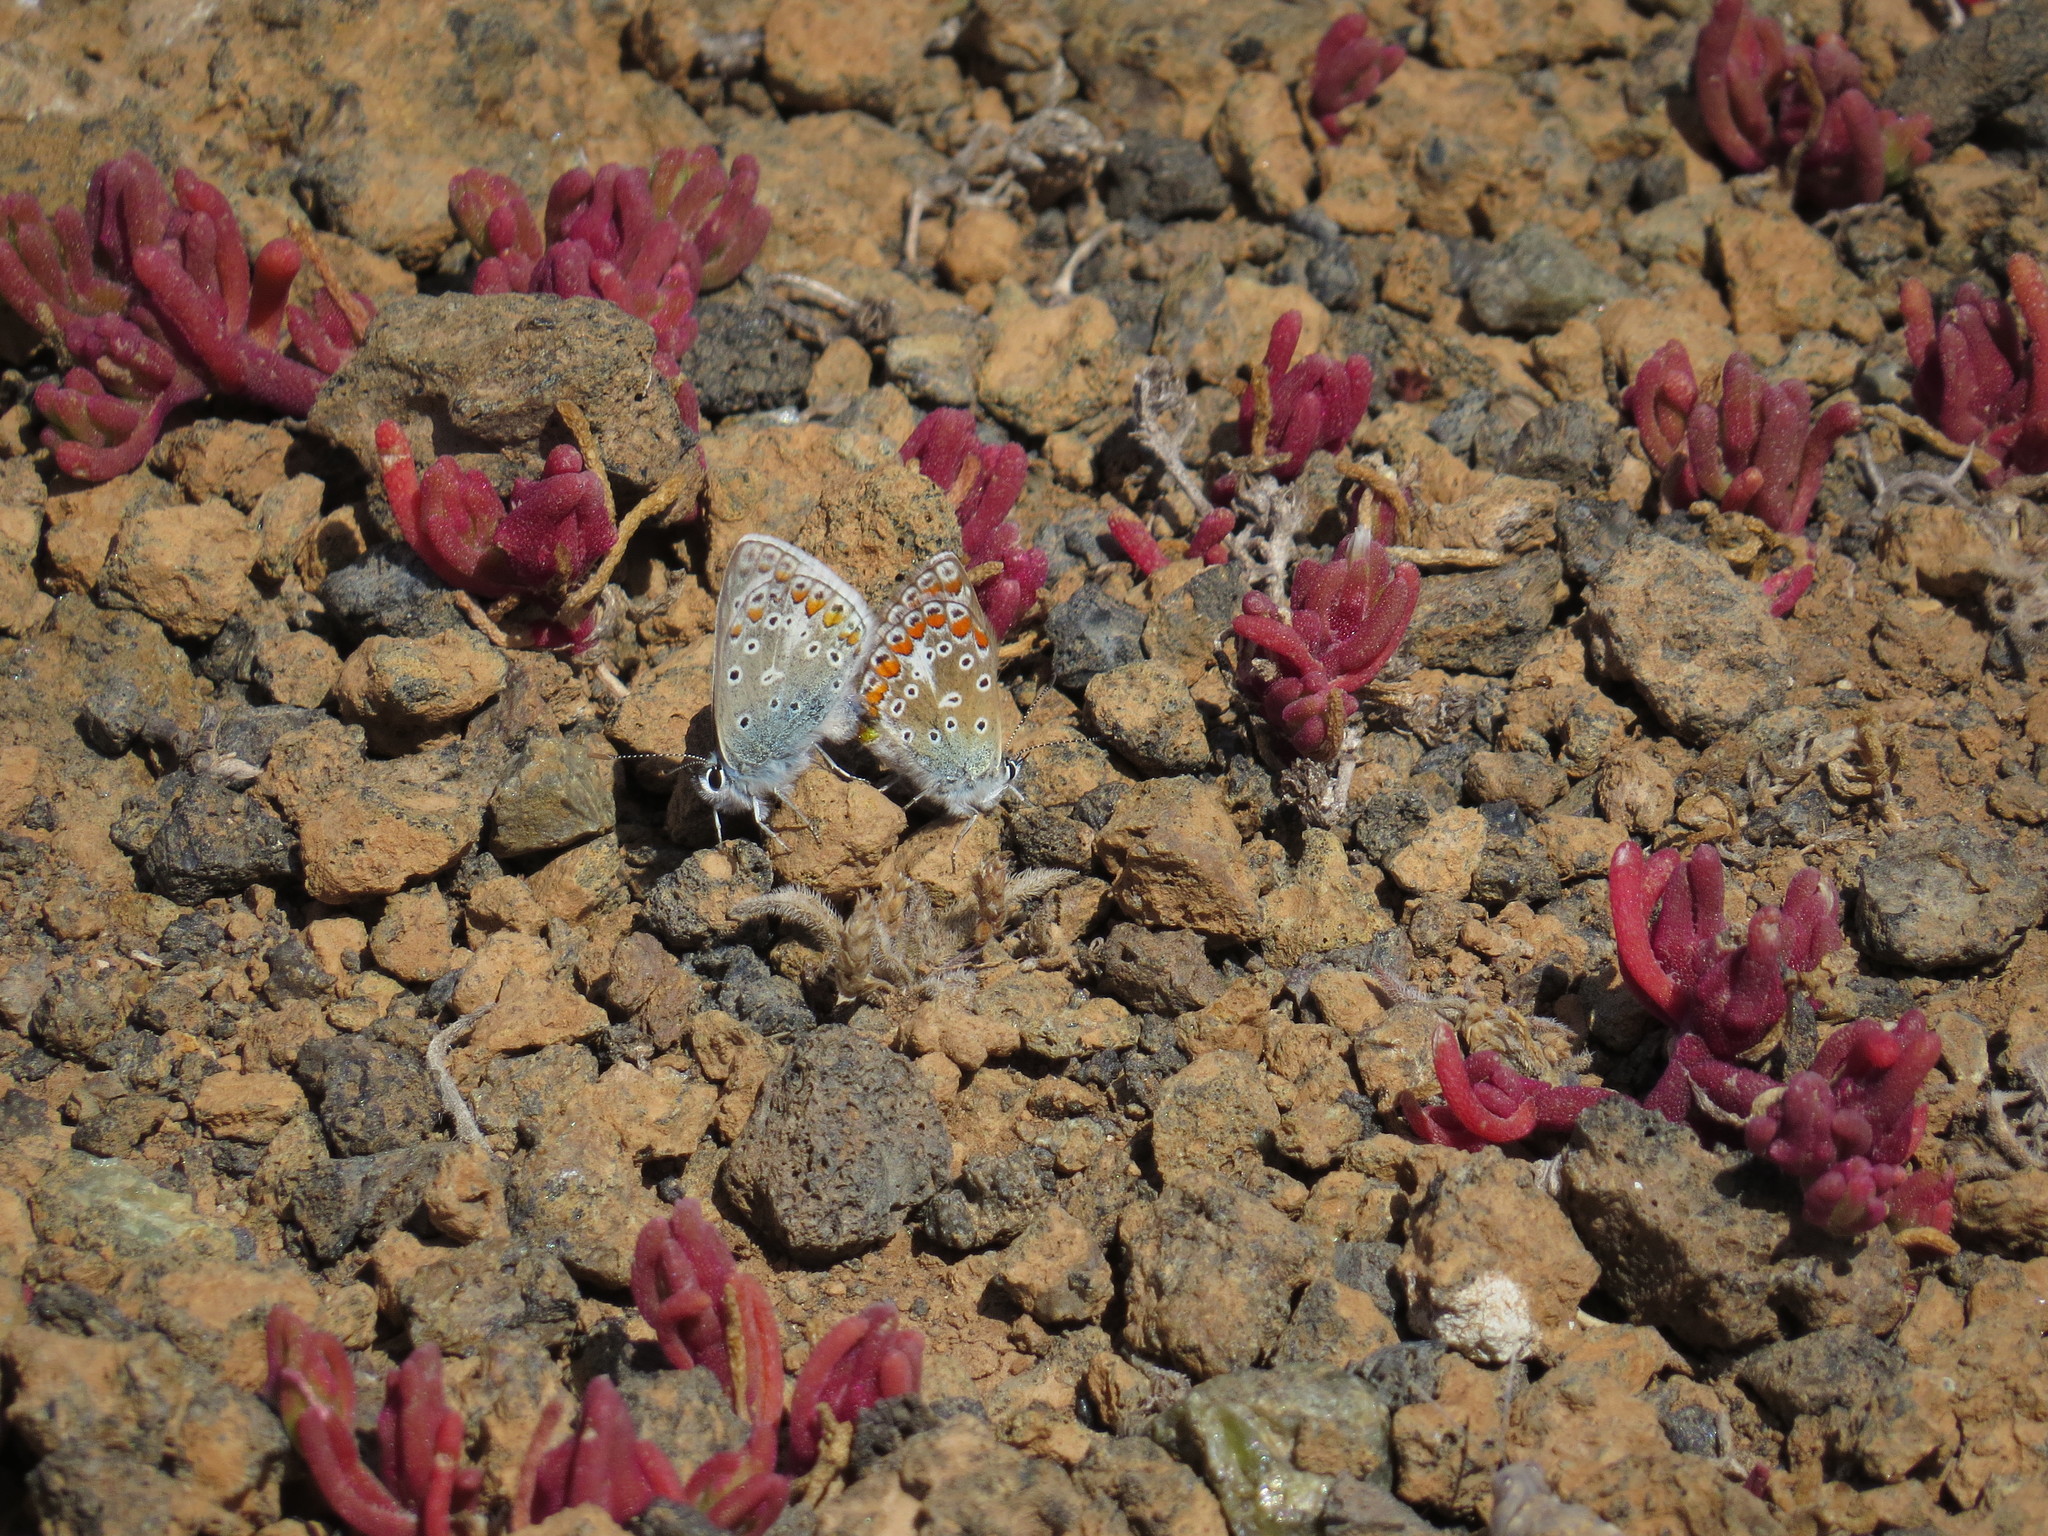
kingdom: Animalia
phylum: Arthropoda
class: Insecta
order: Lepidoptera
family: Lycaenidae
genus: Polyommatus
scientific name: Polyommatus celina
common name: Austaut's blue
